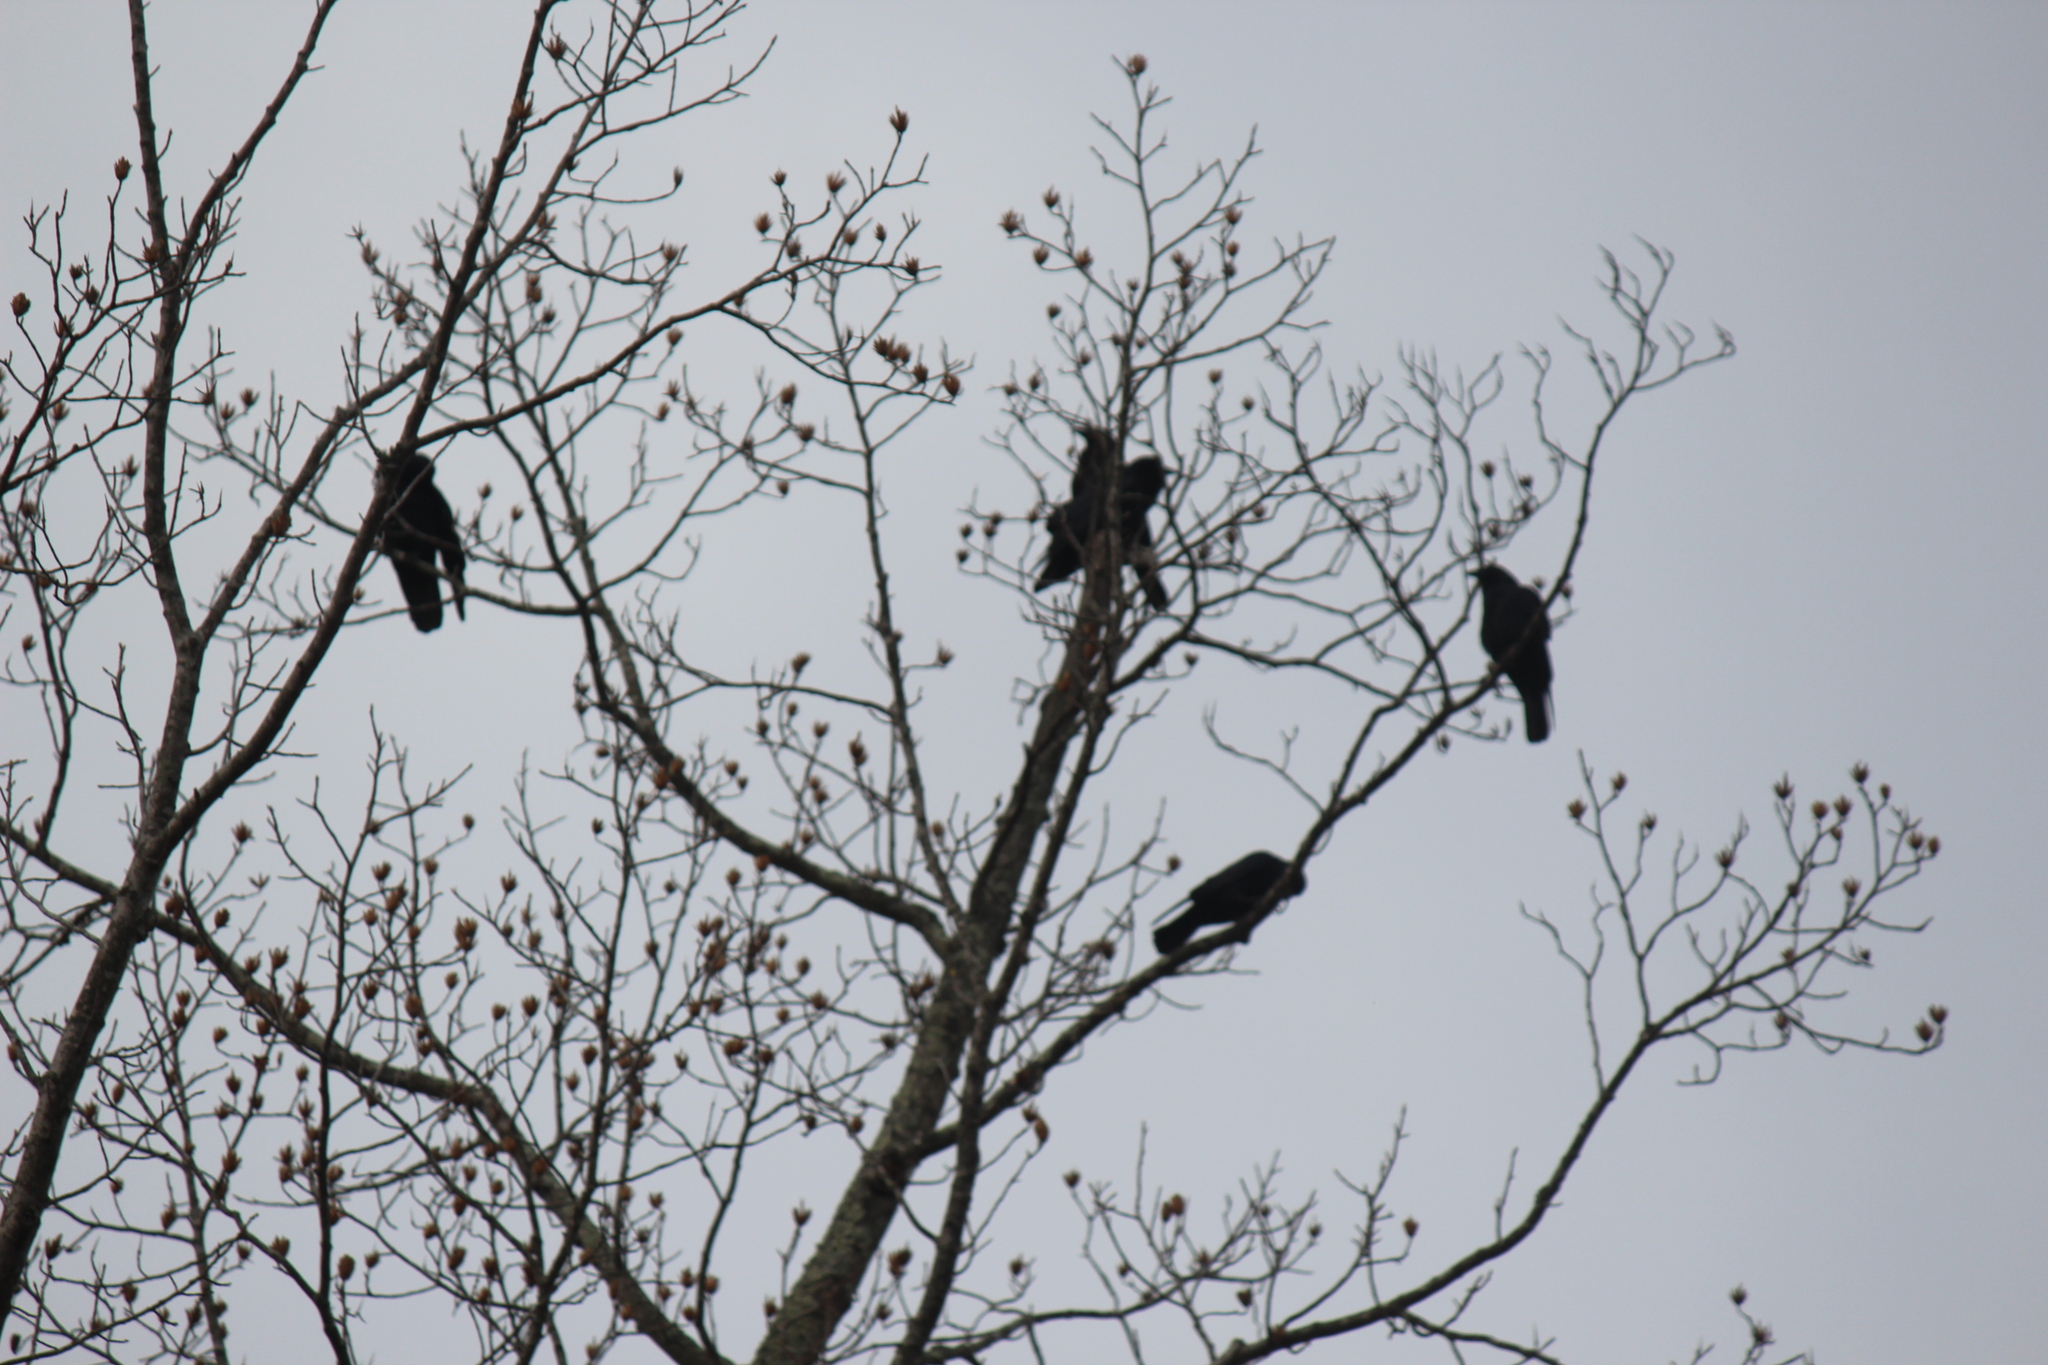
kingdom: Animalia
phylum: Chordata
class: Aves
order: Passeriformes
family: Corvidae
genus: Corvus
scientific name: Corvus ossifragus
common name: Fish crow
